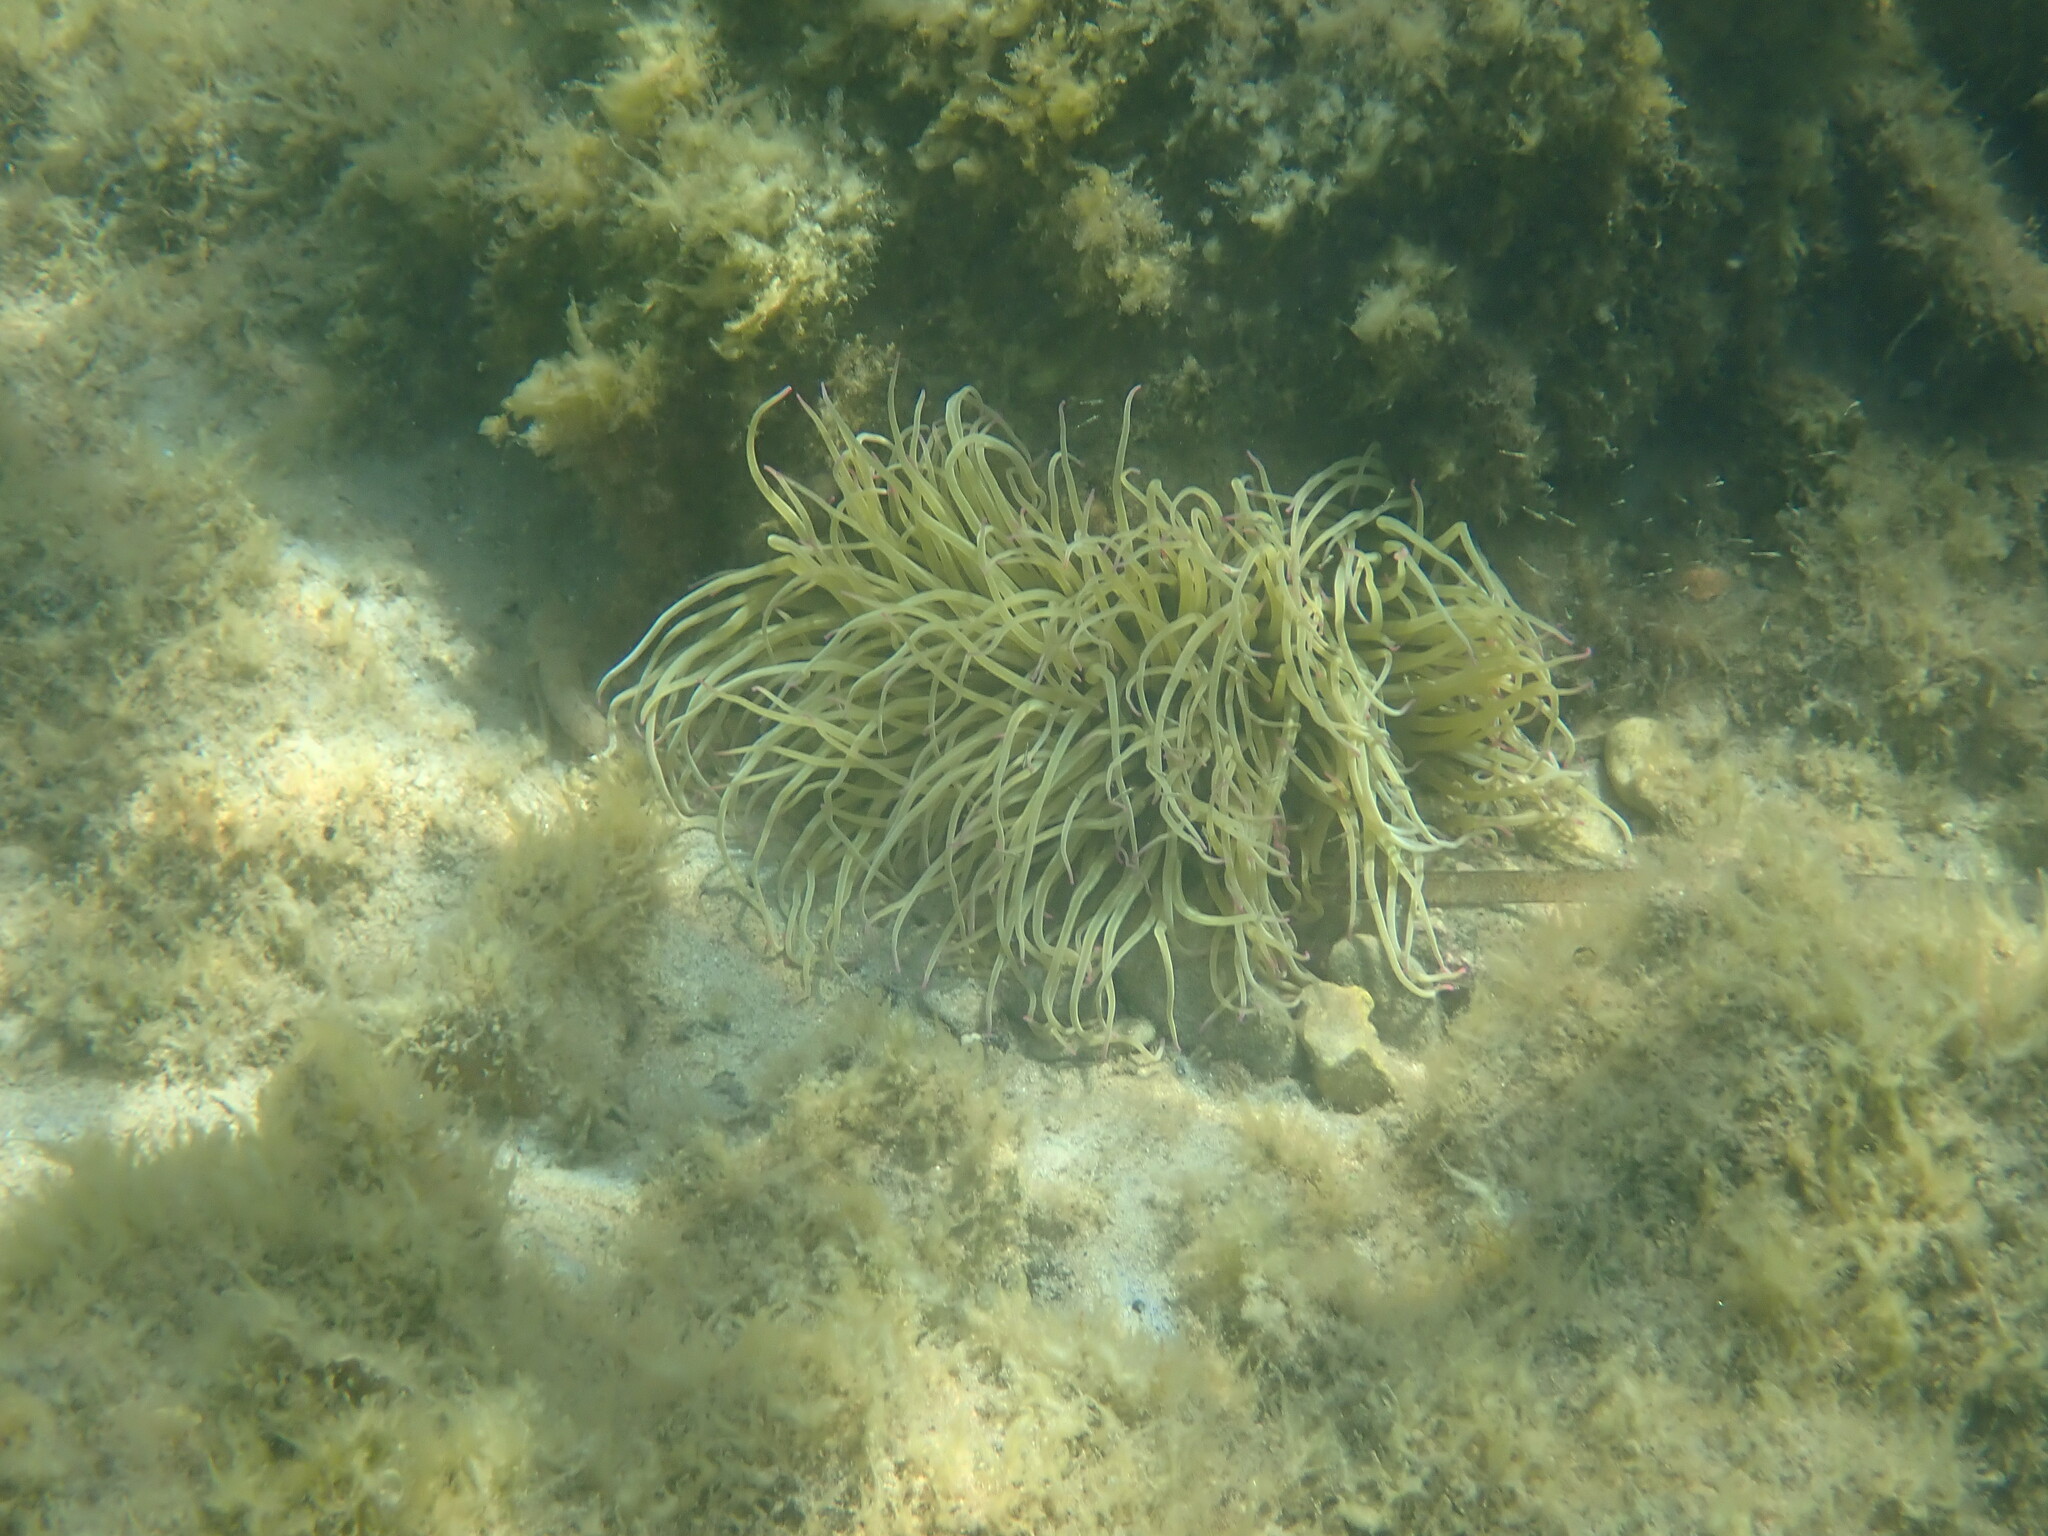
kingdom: Animalia
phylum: Cnidaria
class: Anthozoa
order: Actiniaria
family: Actiniidae
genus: Anemonia
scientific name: Anemonia viridis
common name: Snakelocks anemone
